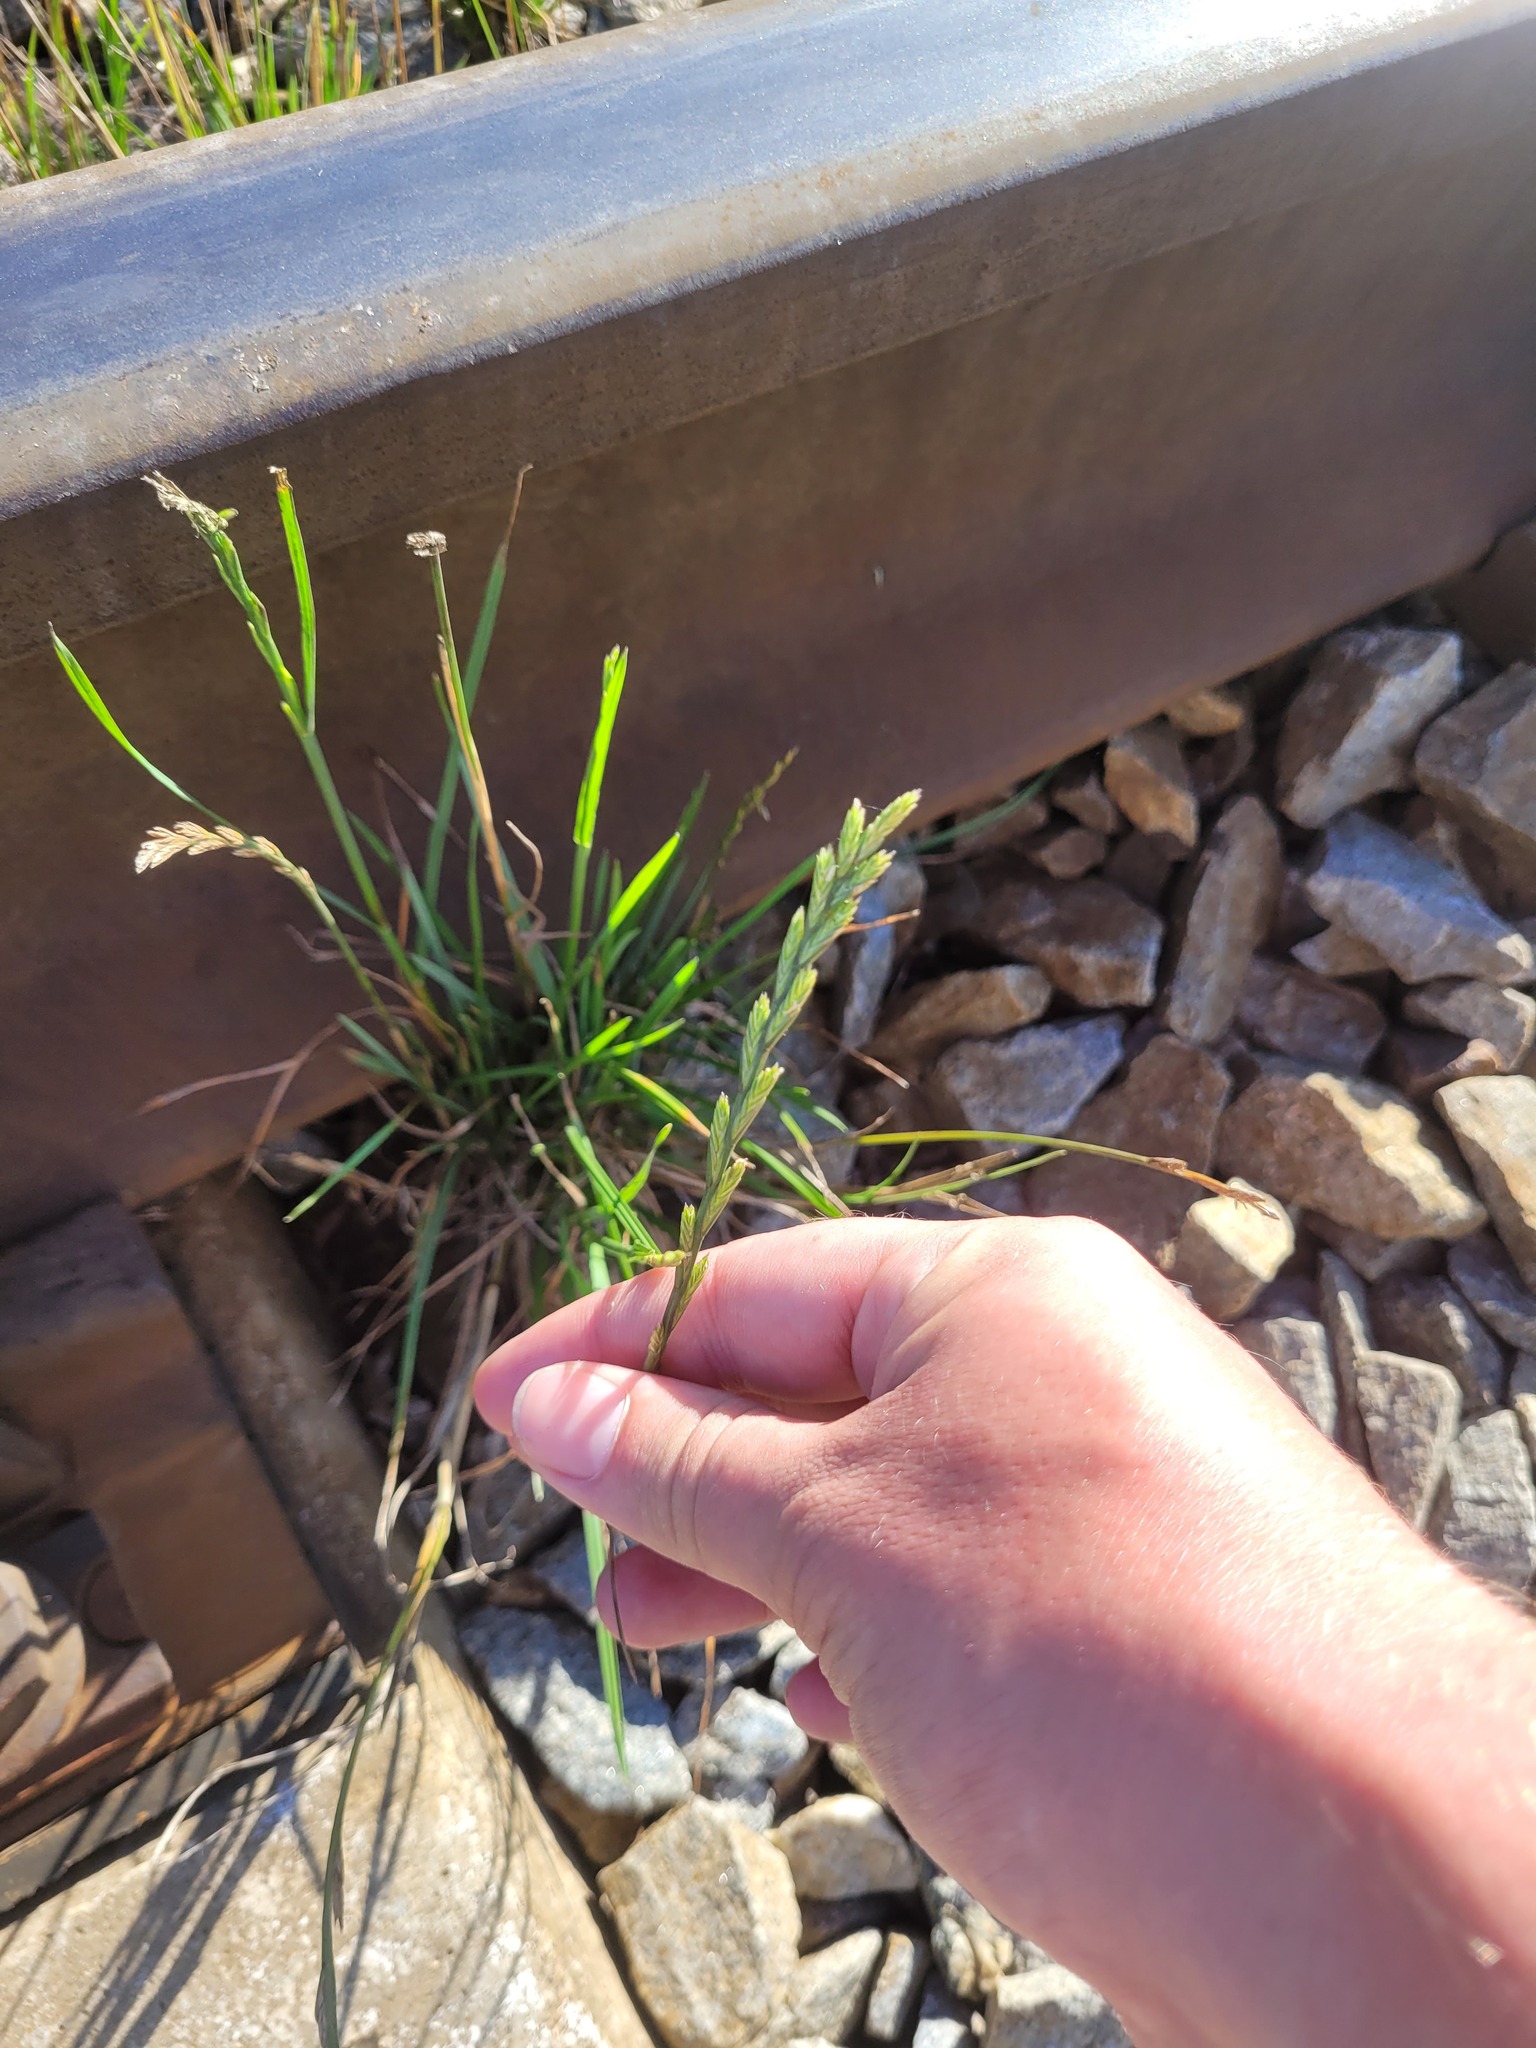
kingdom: Plantae
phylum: Tracheophyta
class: Liliopsida
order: Poales
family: Poaceae
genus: Lolium
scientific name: Lolium perenne
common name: Perennial ryegrass
